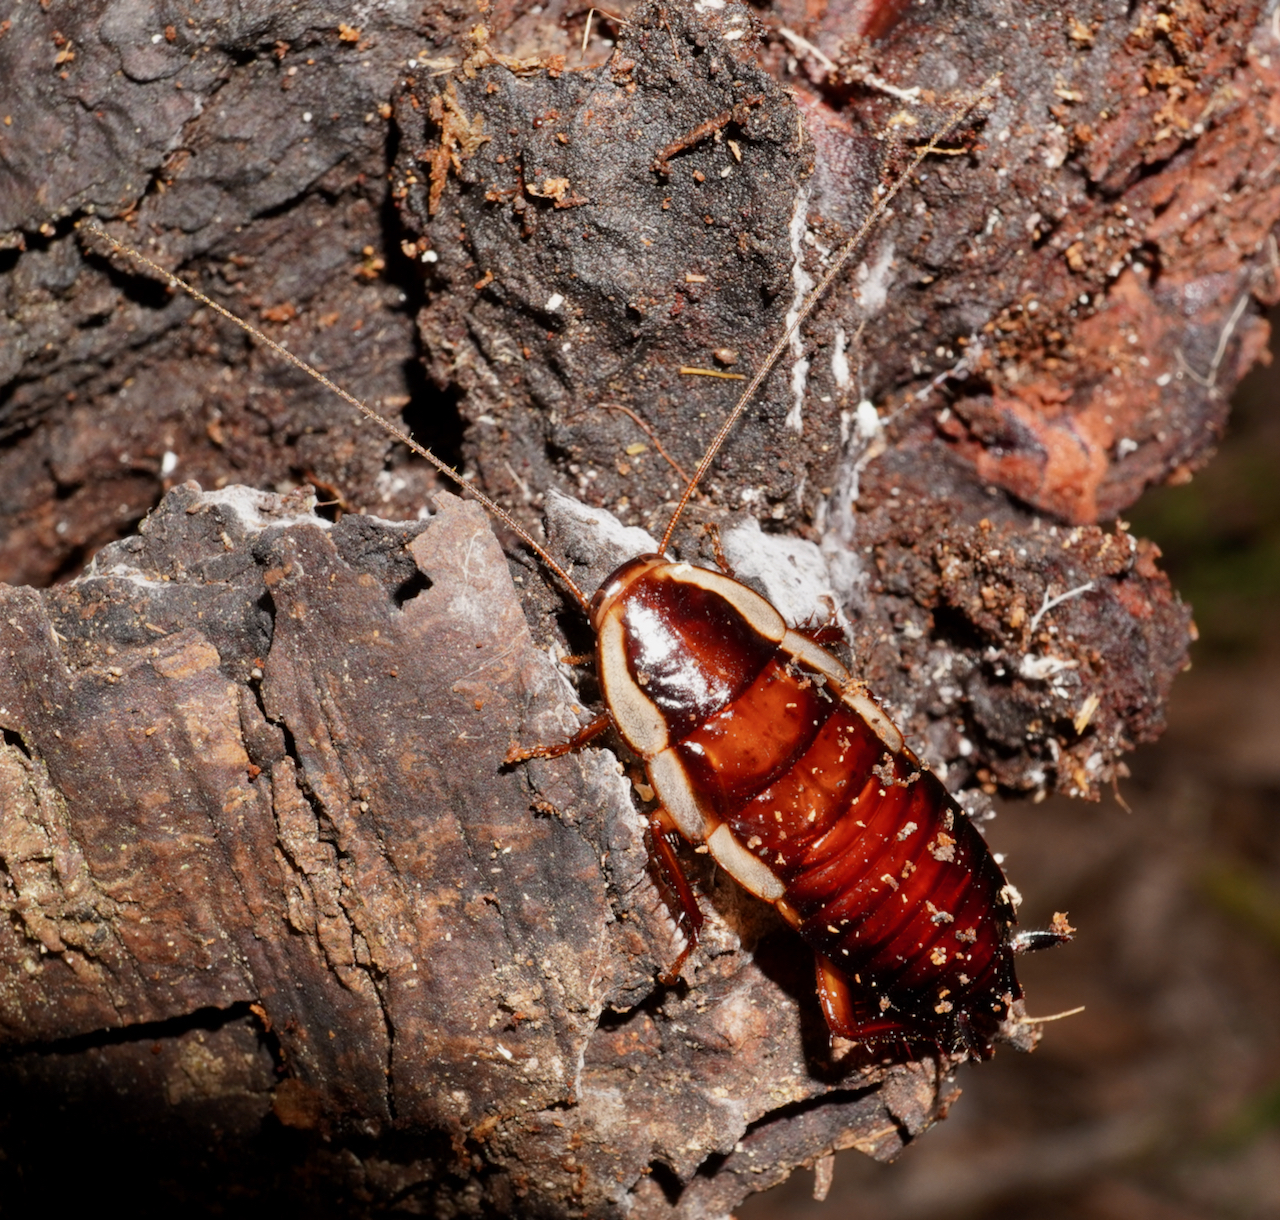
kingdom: Animalia
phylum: Arthropoda
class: Insecta
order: Blattodea
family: Blattidae
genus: Drymaplaneta
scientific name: Drymaplaneta semivitta
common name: Gisborne cockroach
